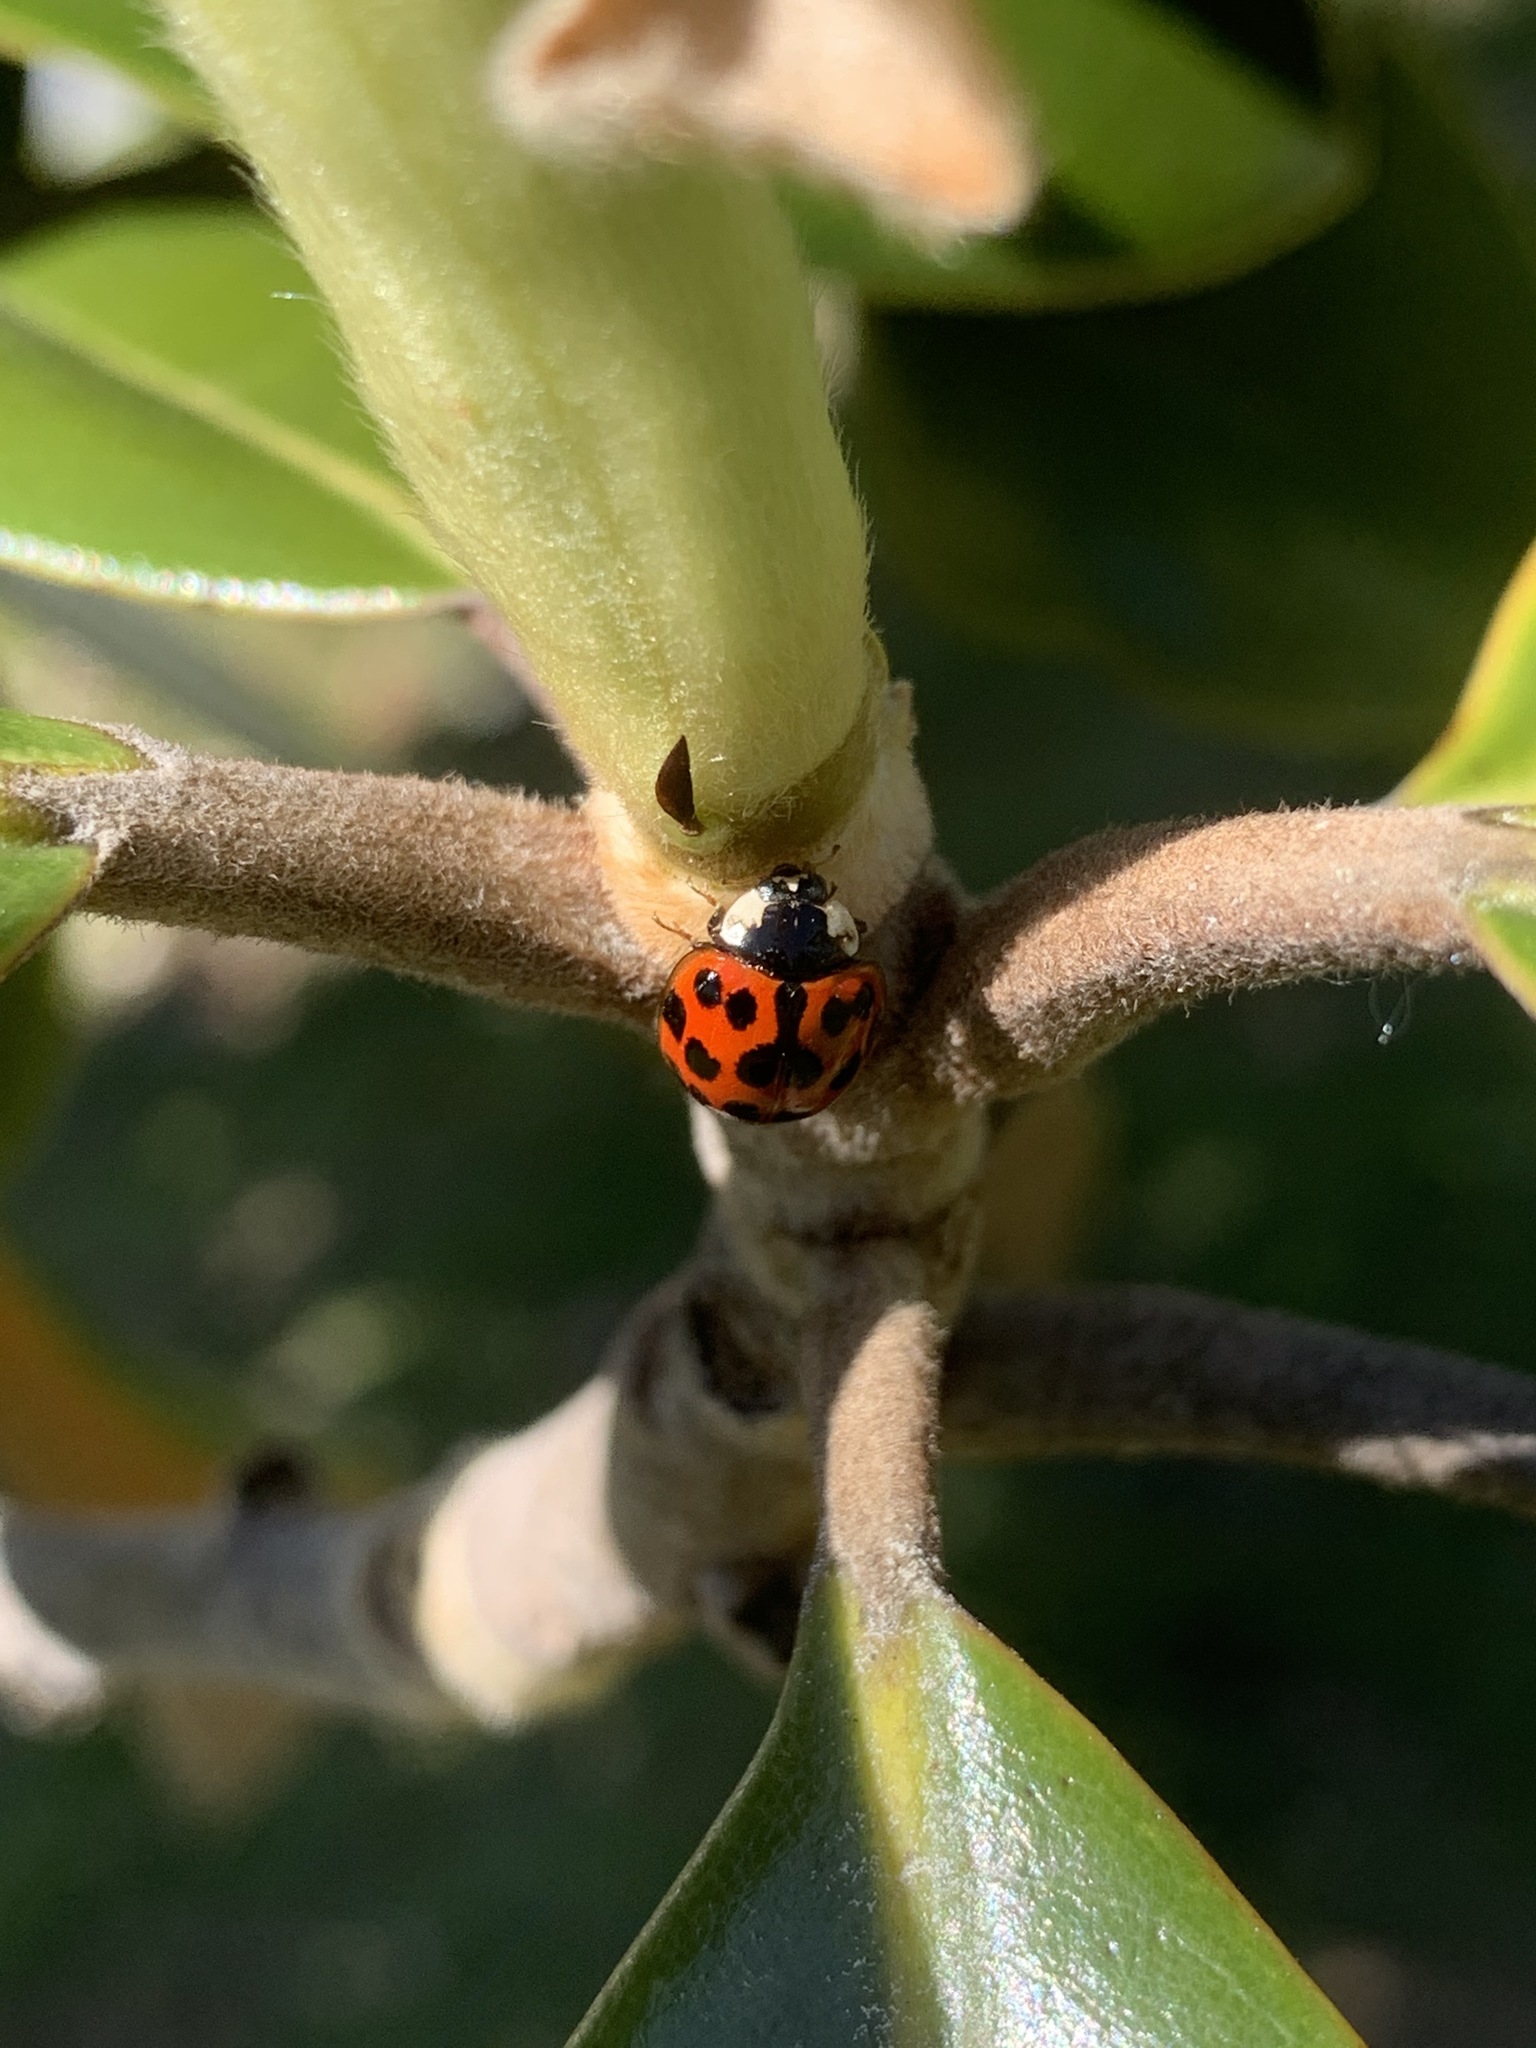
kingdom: Animalia
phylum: Arthropoda
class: Insecta
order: Coleoptera
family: Coccinellidae
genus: Harmonia
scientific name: Harmonia axyridis
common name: Harlequin ladybird
